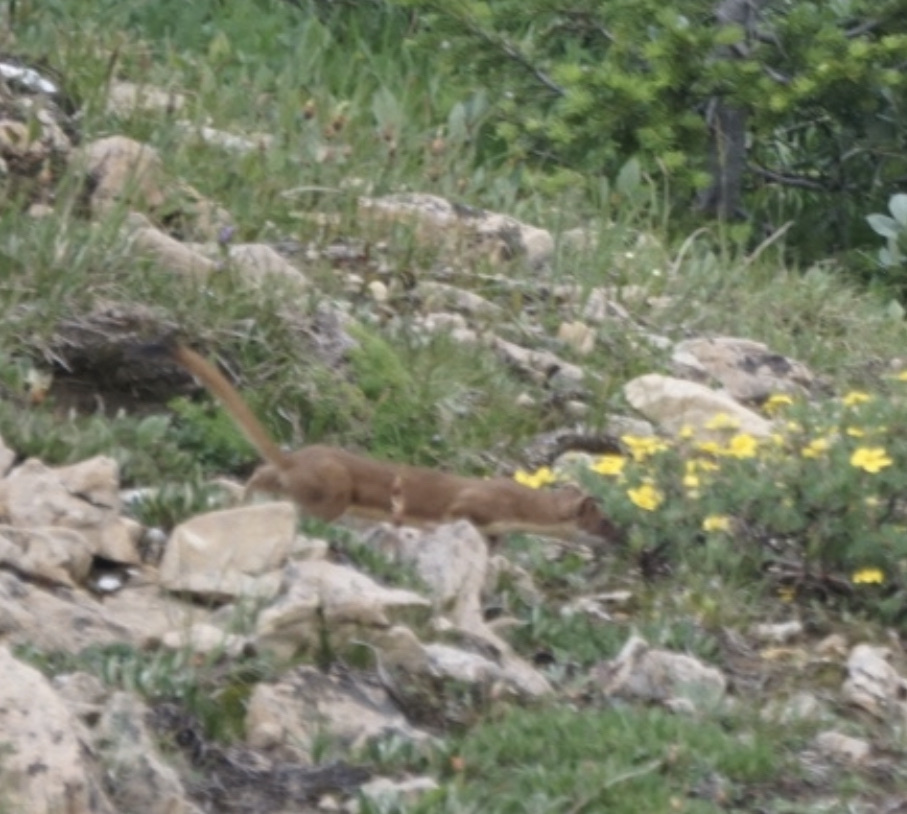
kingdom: Animalia
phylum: Chordata
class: Mammalia
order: Carnivora
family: Mustelidae
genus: Mustela
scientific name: Mustela
